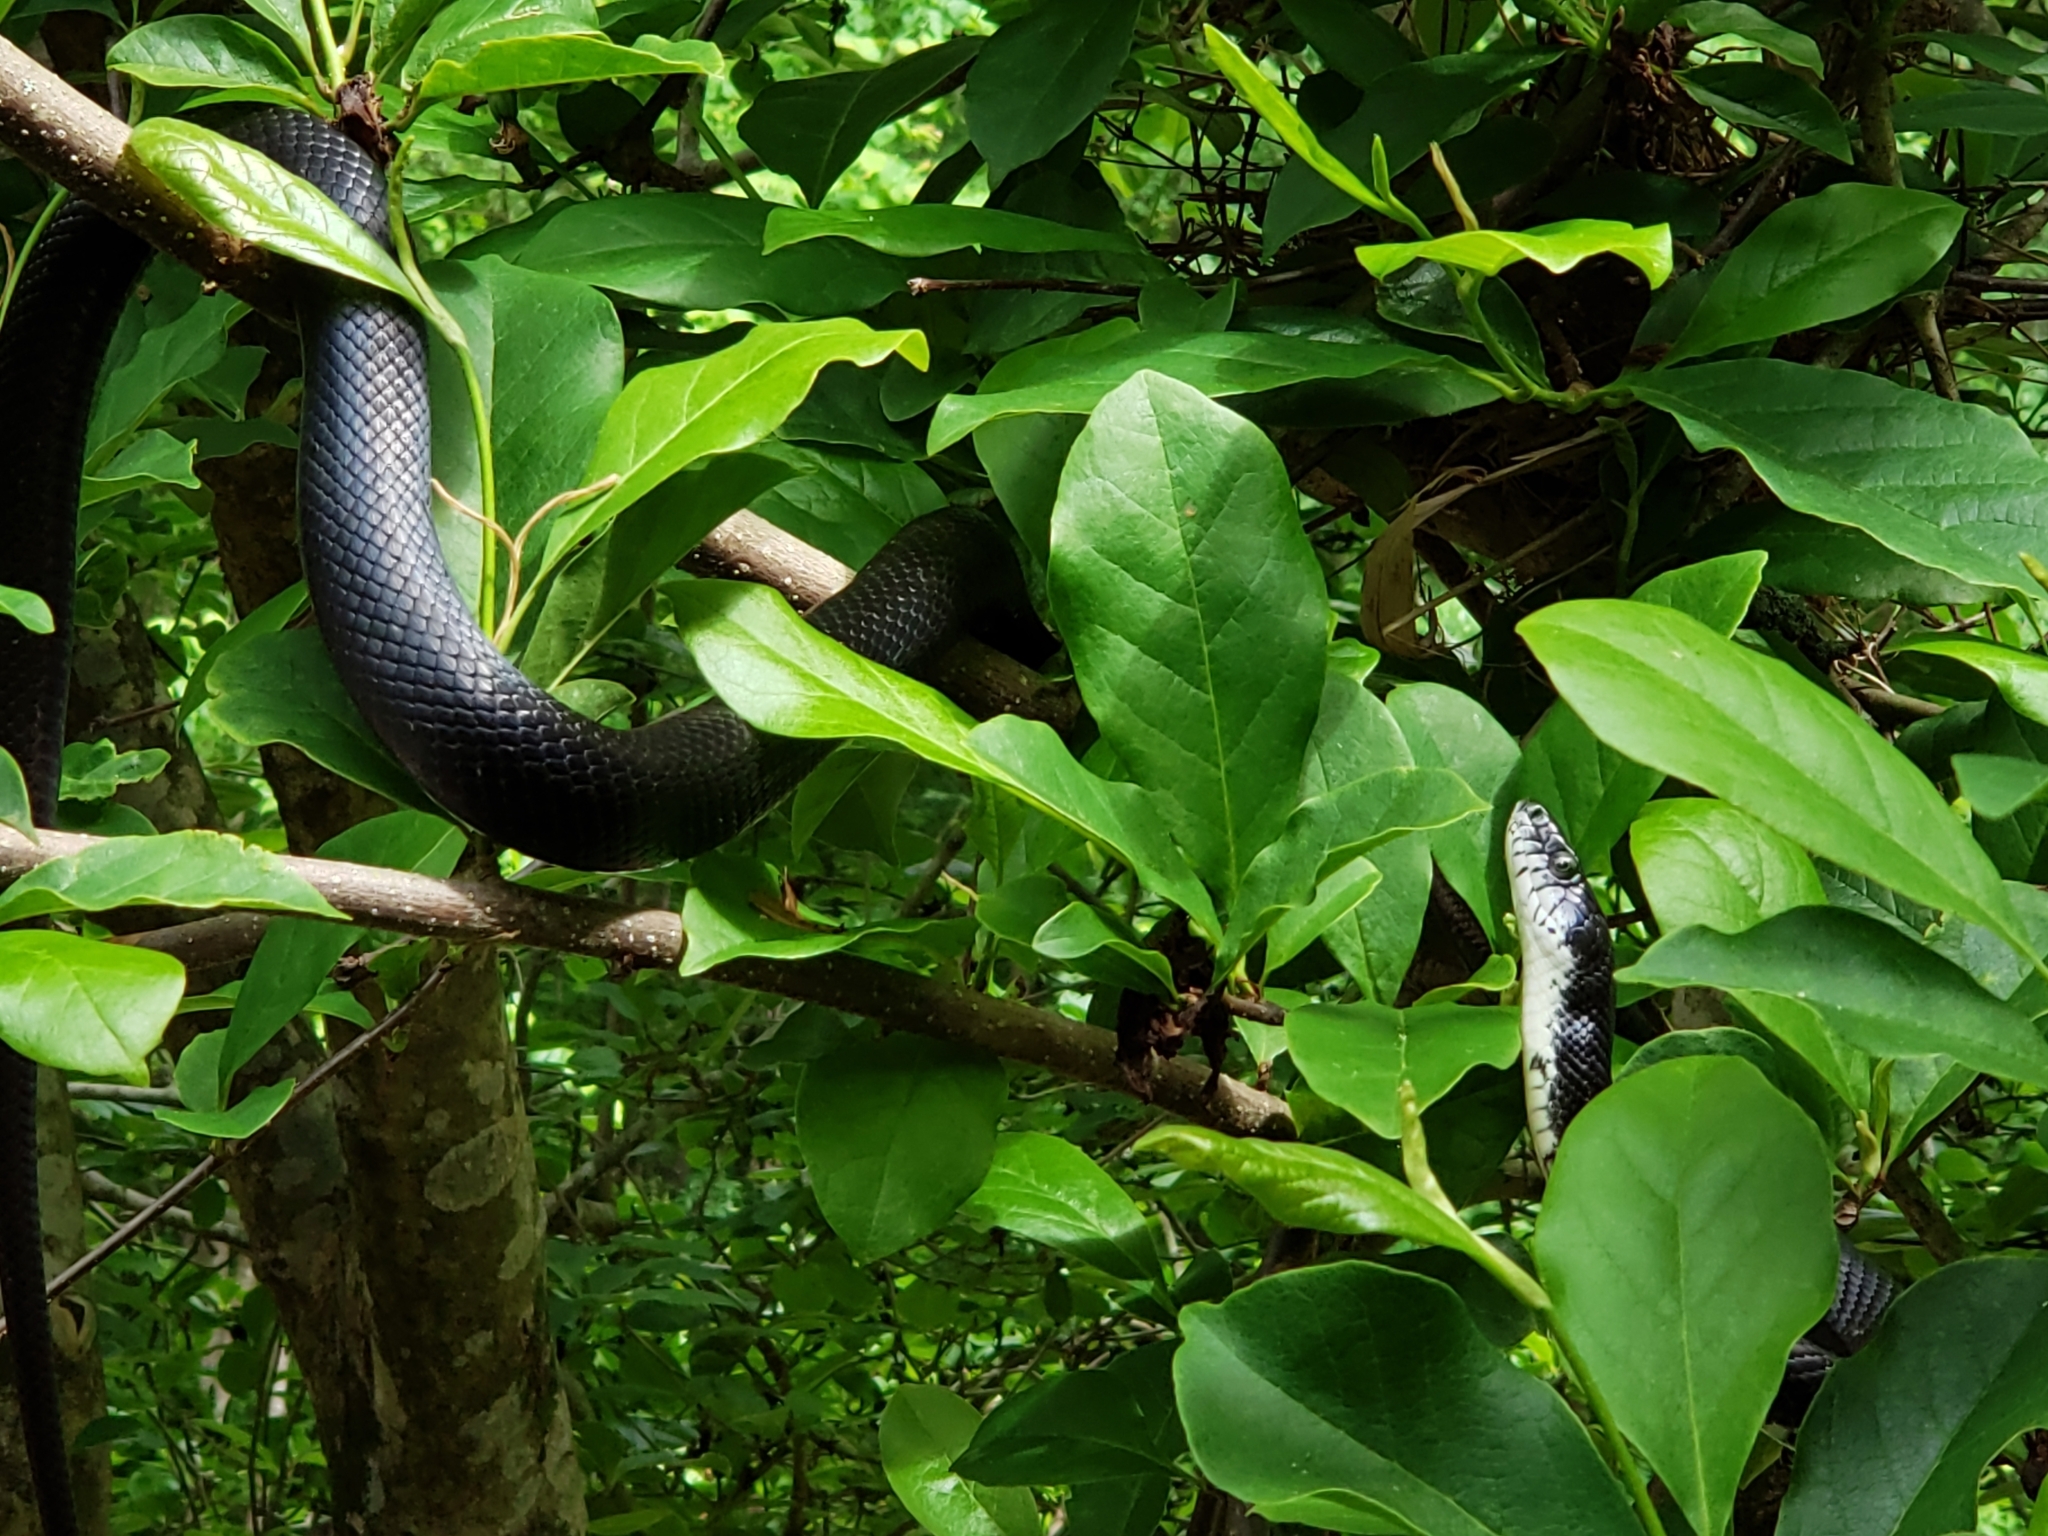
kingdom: Animalia
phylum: Chordata
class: Squamata
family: Colubridae
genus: Pantherophis
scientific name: Pantherophis alleghaniensis
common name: Eastern rat snake
